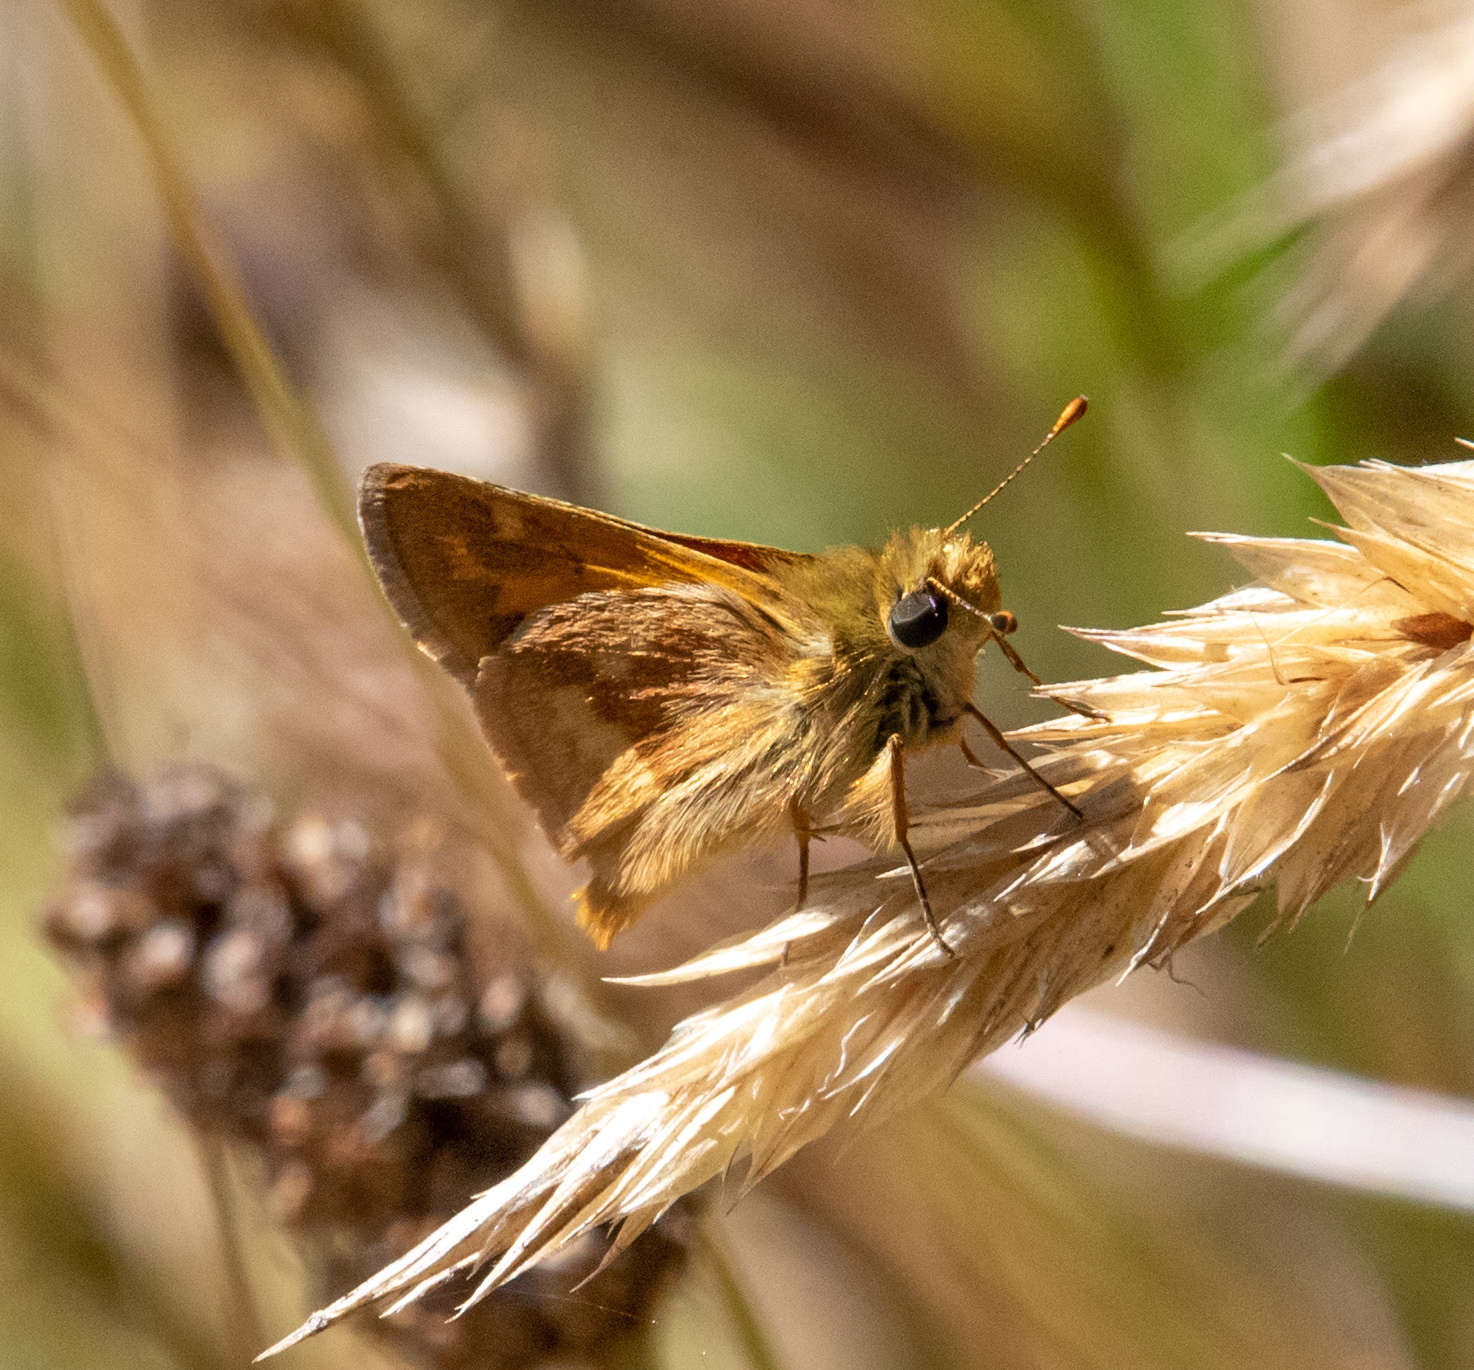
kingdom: Animalia
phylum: Arthropoda
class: Insecta
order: Lepidoptera
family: Hesperiidae
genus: Ochlodes
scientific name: Ochlodes sylvanoides
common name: Woodland skipper
